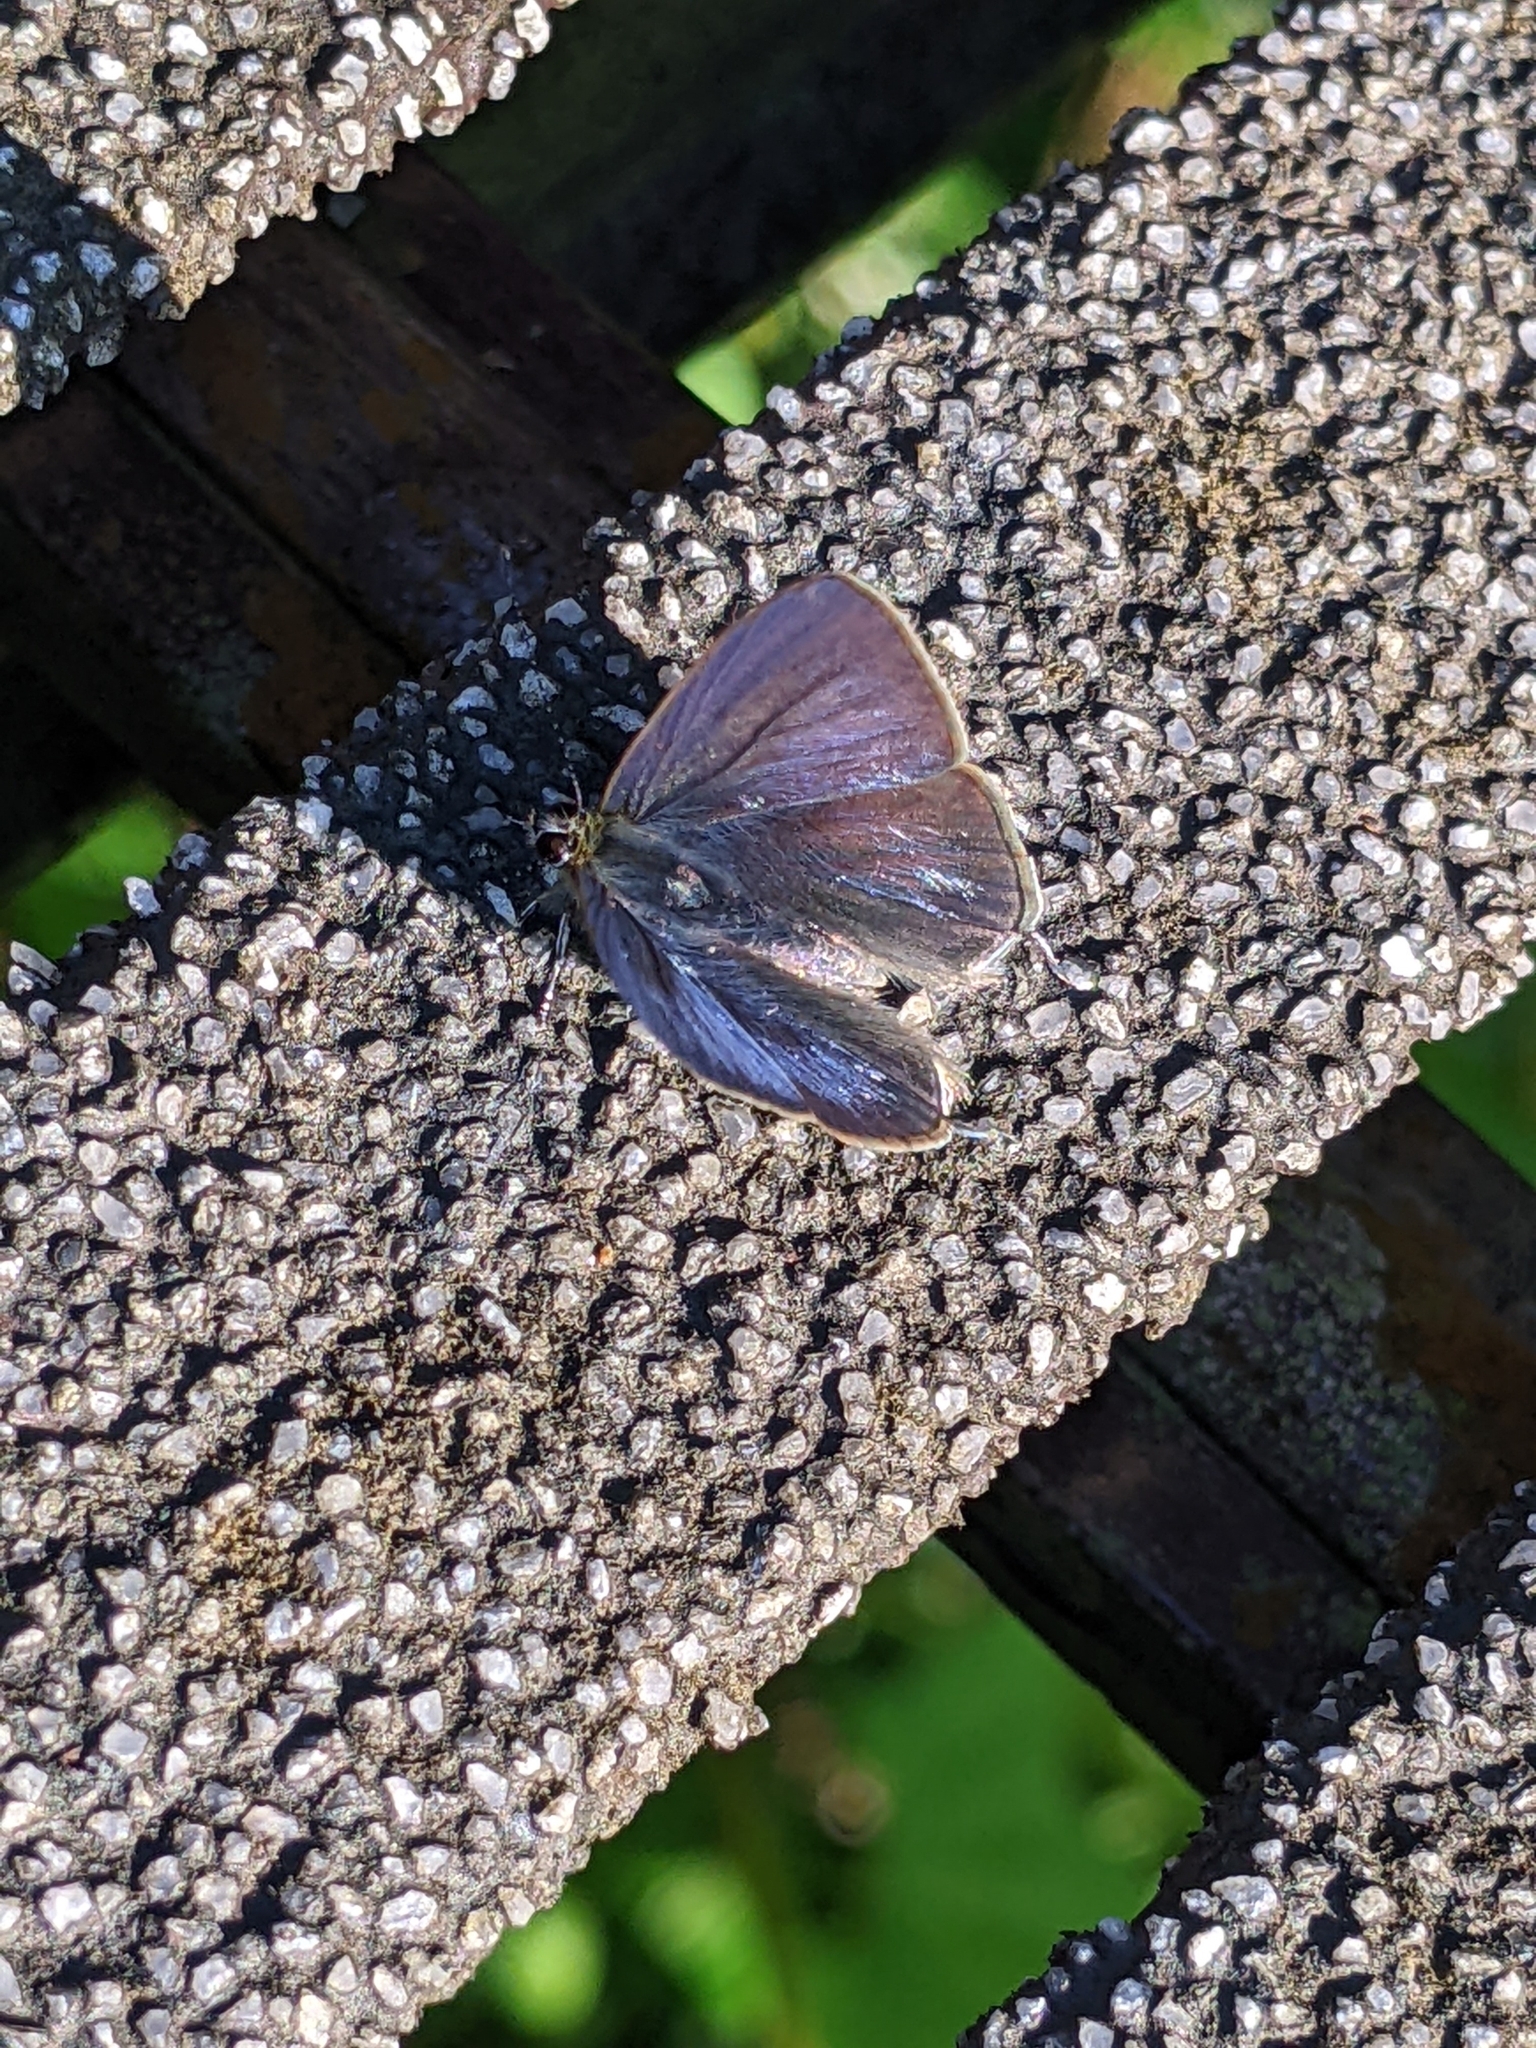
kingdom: Animalia
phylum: Arthropoda
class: Insecta
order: Lepidoptera
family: Lycaenidae
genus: Ionolyce
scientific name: Ionolyce helicon
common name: Pointed line blue
